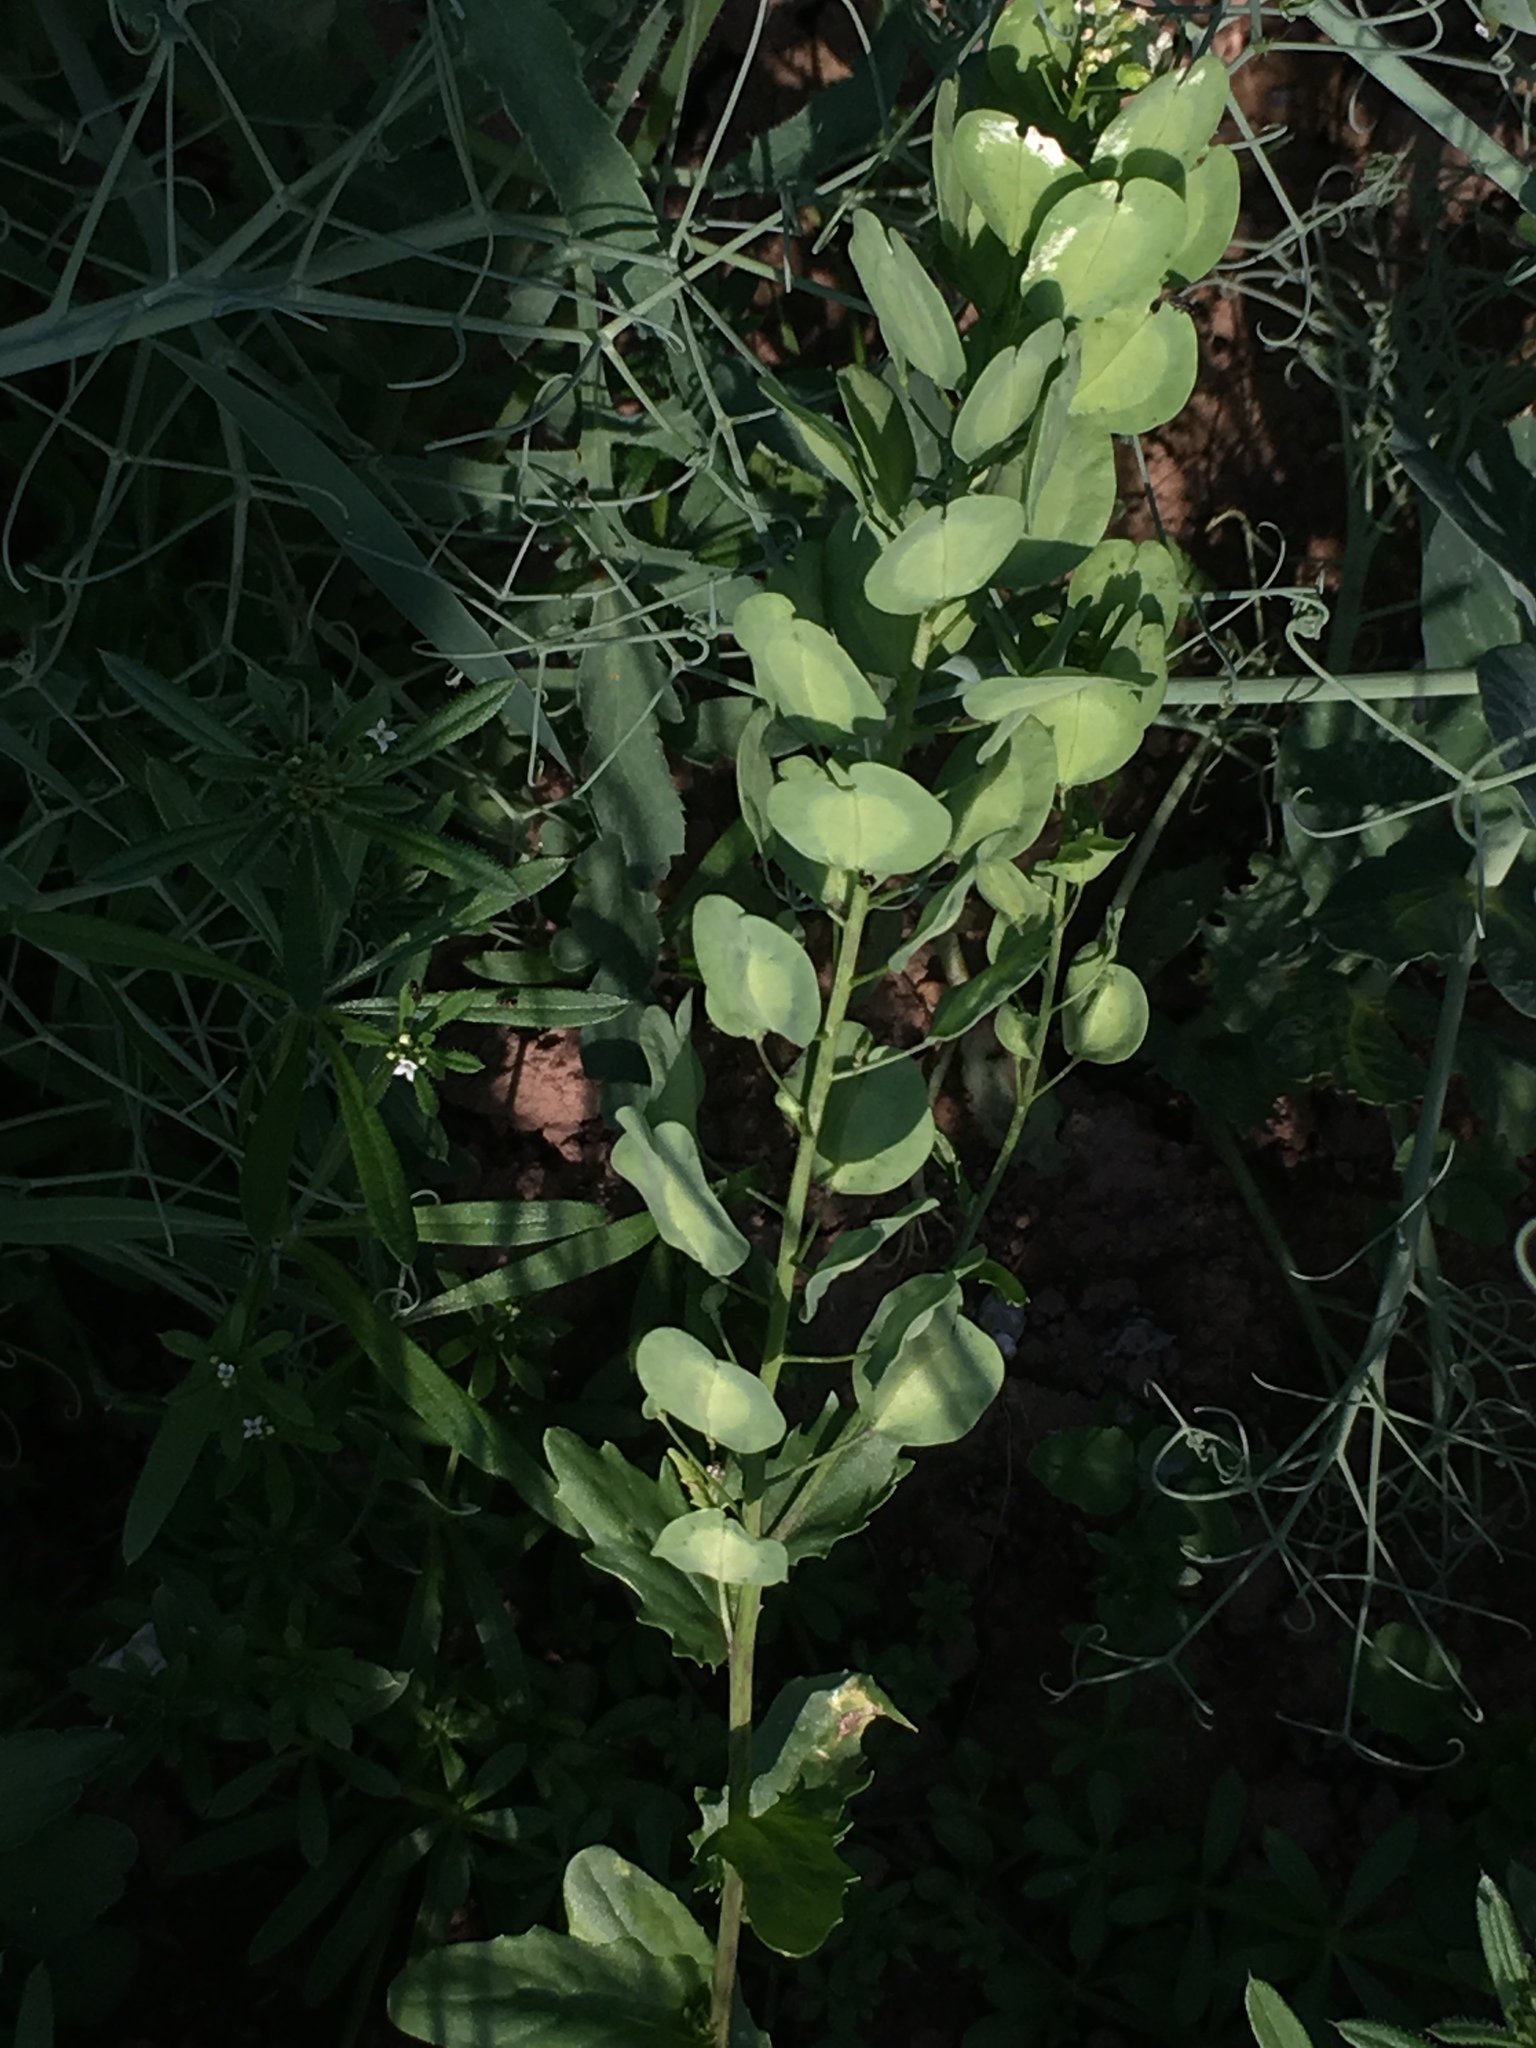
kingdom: Plantae
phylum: Tracheophyta
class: Magnoliopsida
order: Brassicales
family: Brassicaceae
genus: Thlaspi
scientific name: Thlaspi arvense
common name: Field pennycress
